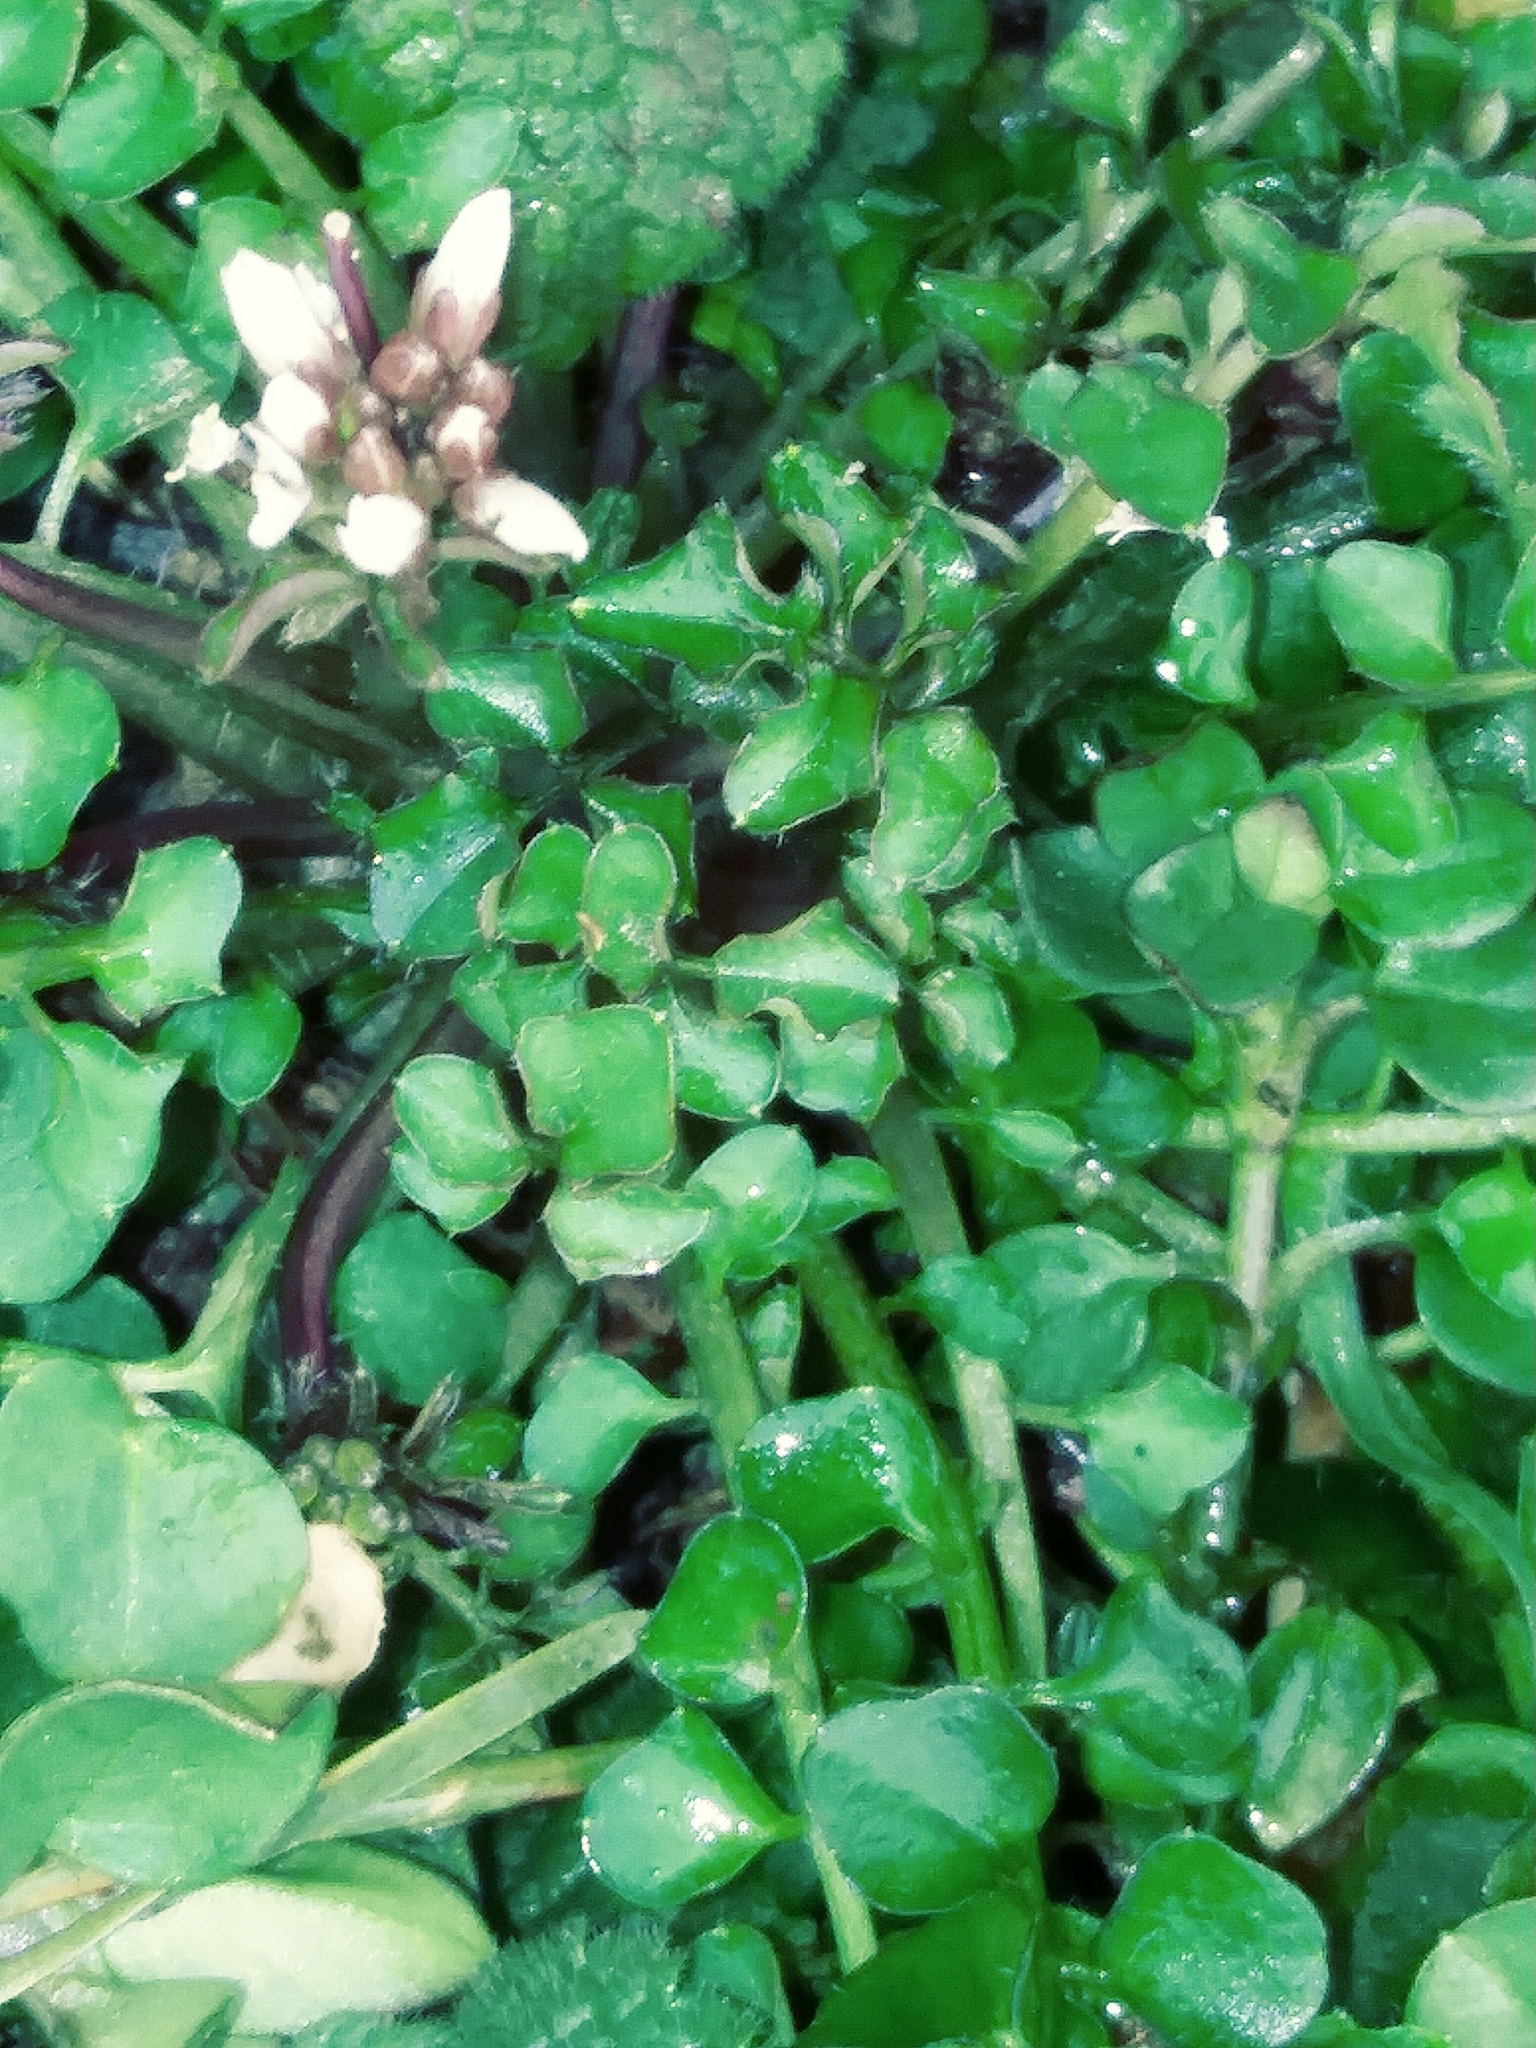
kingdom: Plantae
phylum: Tracheophyta
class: Magnoliopsida
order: Brassicales
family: Brassicaceae
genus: Cardamine
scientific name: Cardamine hirsuta
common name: Hairy bittercress
